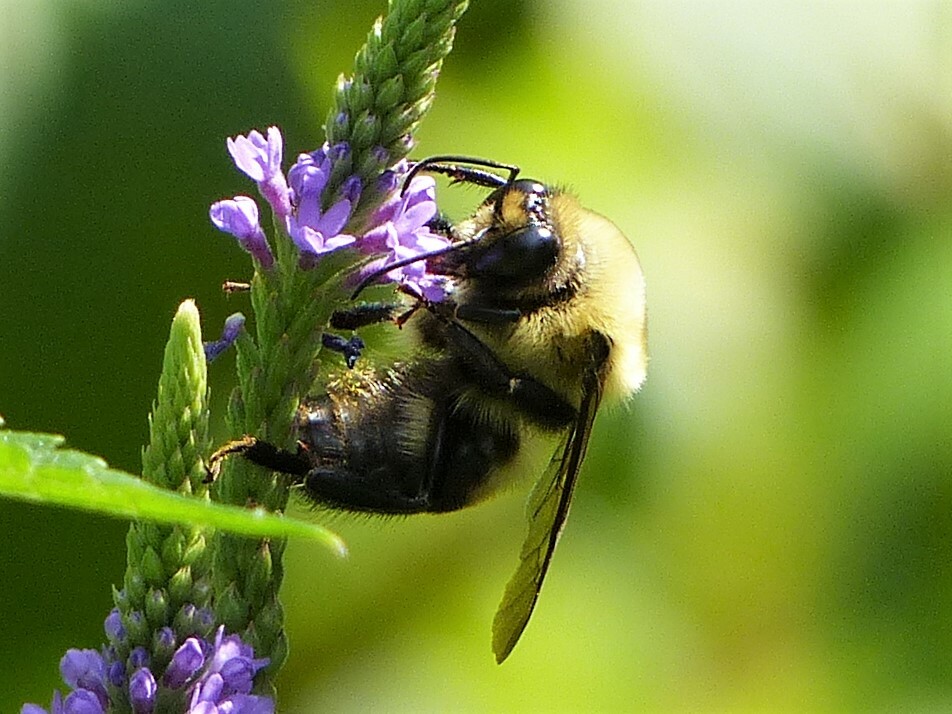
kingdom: Animalia
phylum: Arthropoda
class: Insecta
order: Hymenoptera
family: Apidae
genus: Bombus
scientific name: Bombus griseocollis
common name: Brown-belted bumble bee
